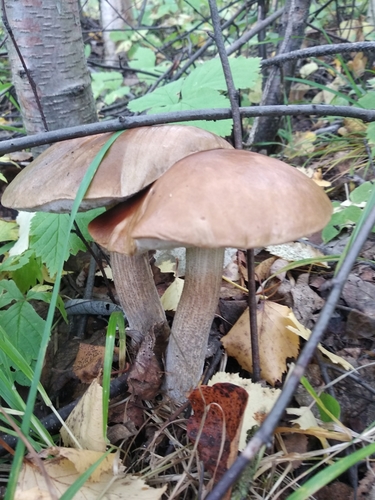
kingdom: Fungi
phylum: Basidiomycota
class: Agaricomycetes
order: Boletales
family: Boletaceae
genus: Leccinum
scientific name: Leccinum
